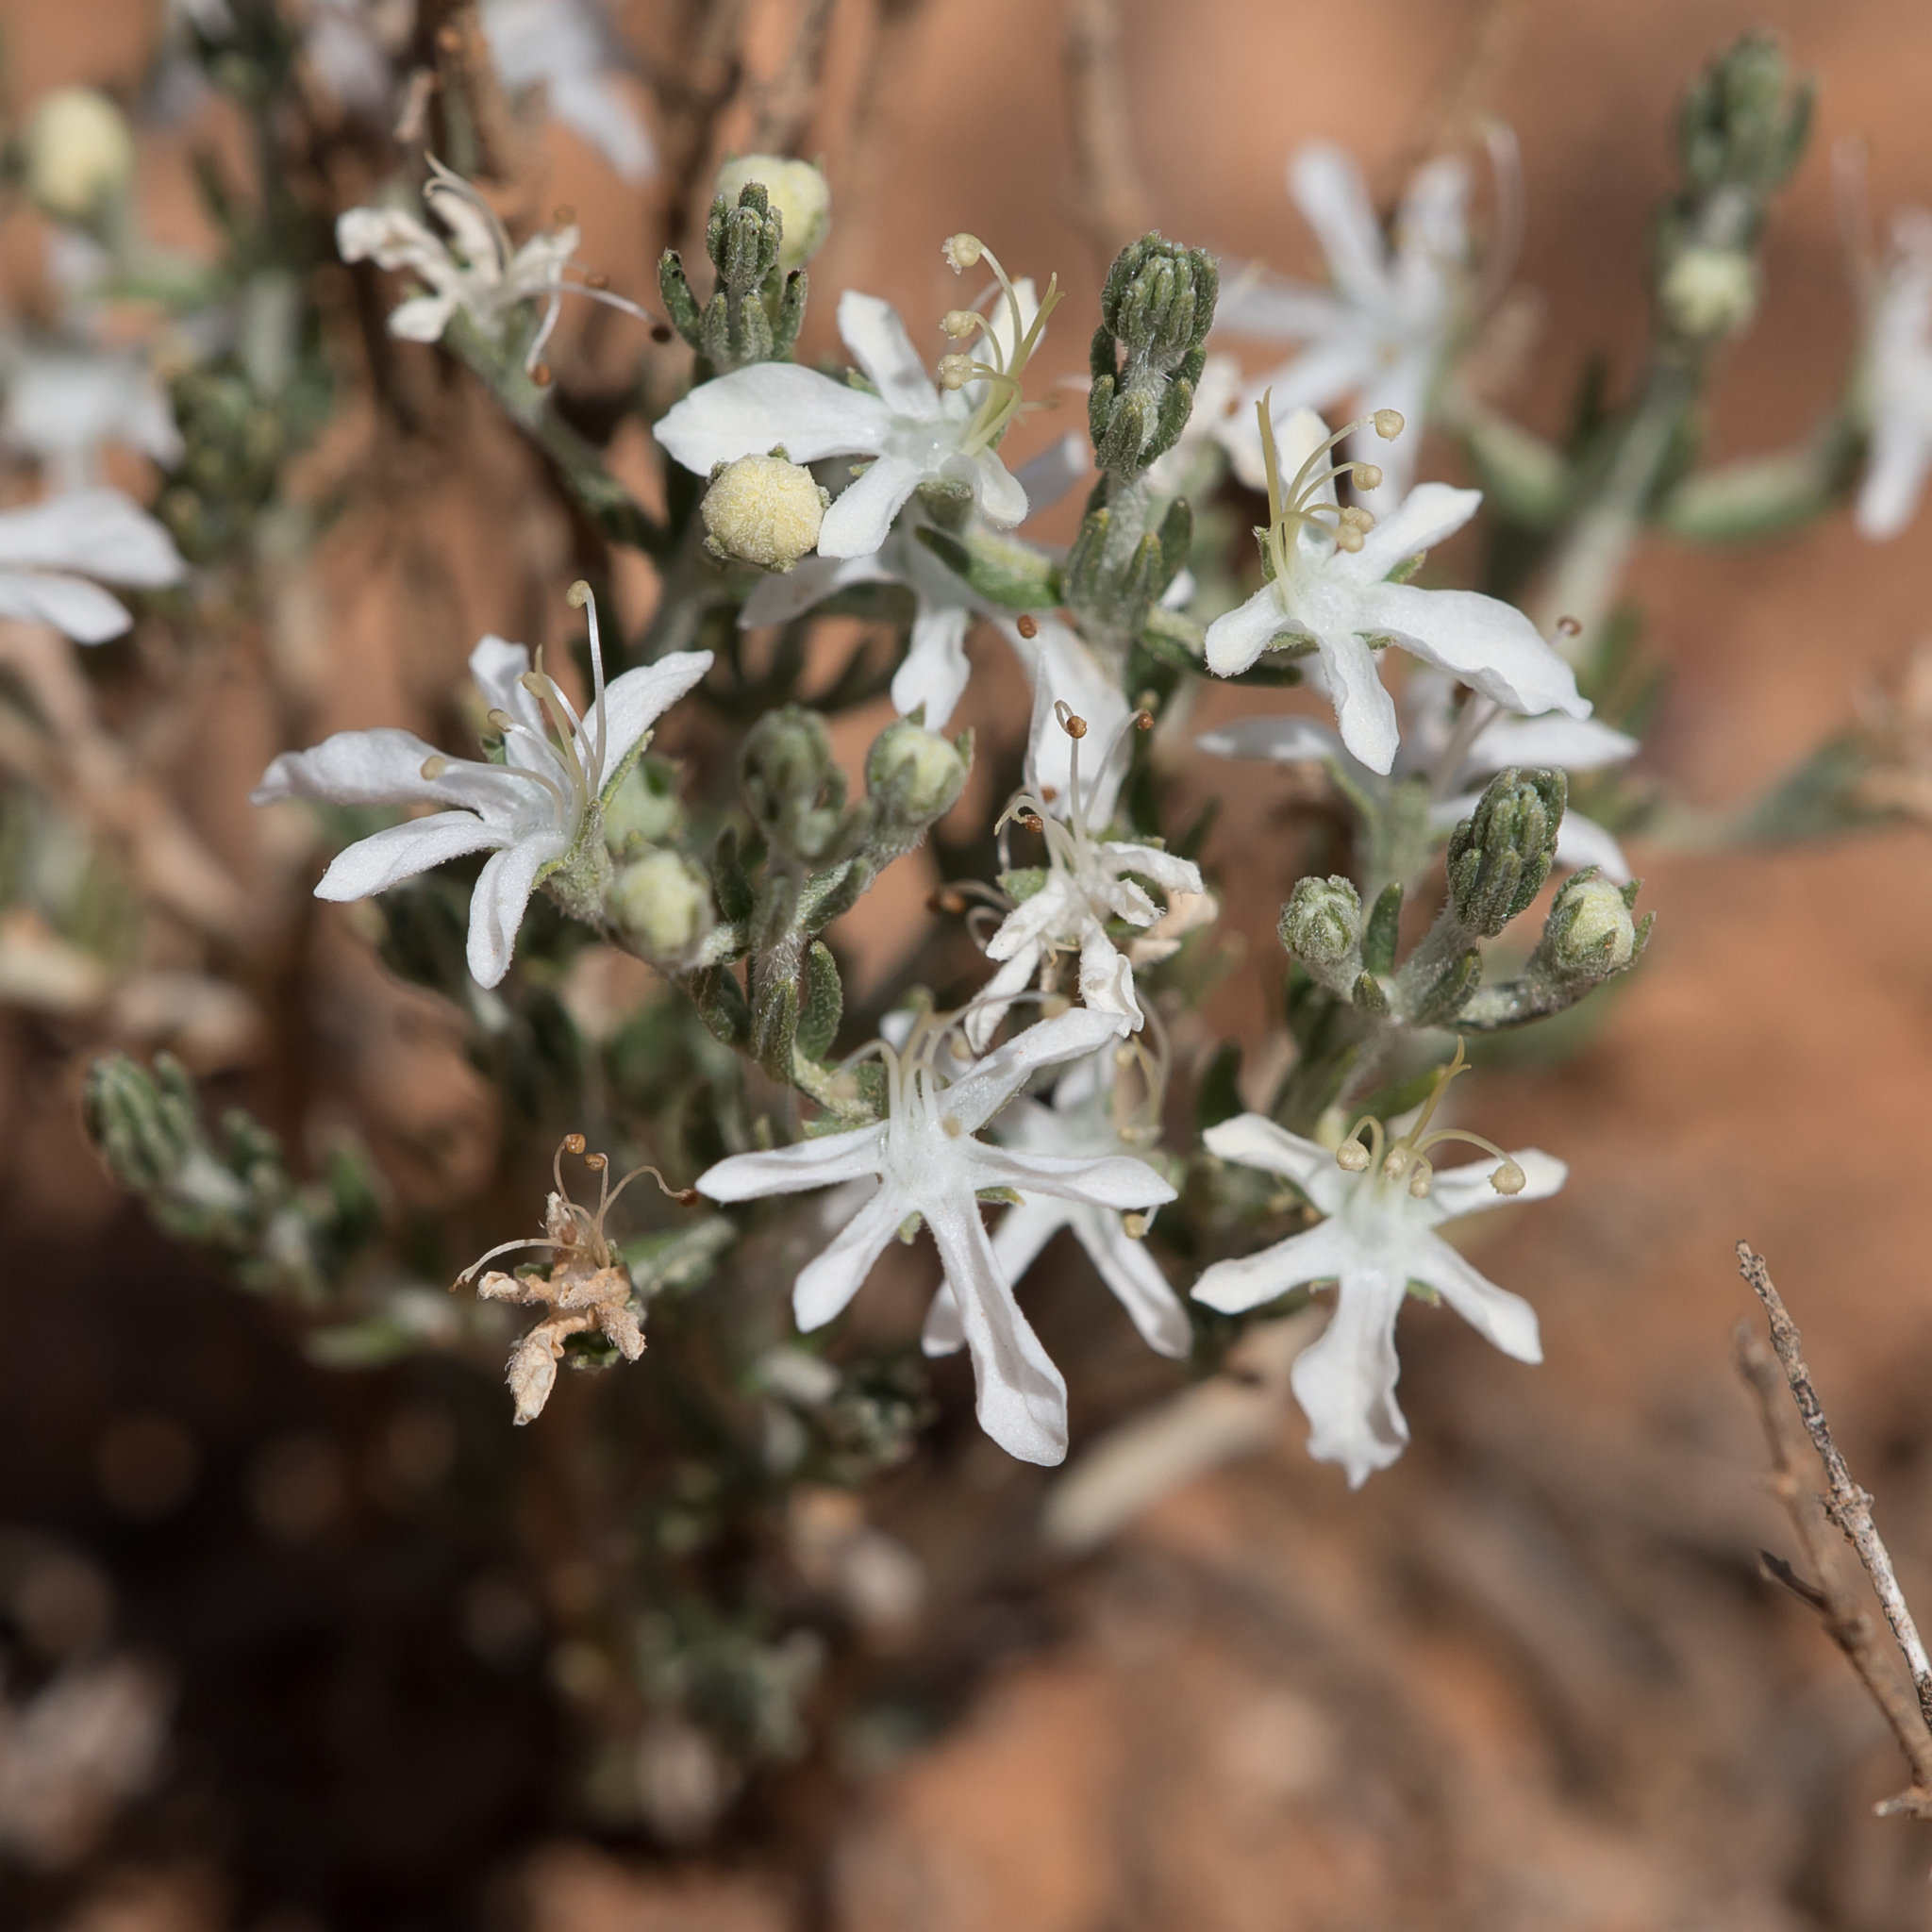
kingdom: Plantae
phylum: Tracheophyta
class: Magnoliopsida
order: Lamiales
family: Lamiaceae
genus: Teucrium
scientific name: Teucrium albicaule
